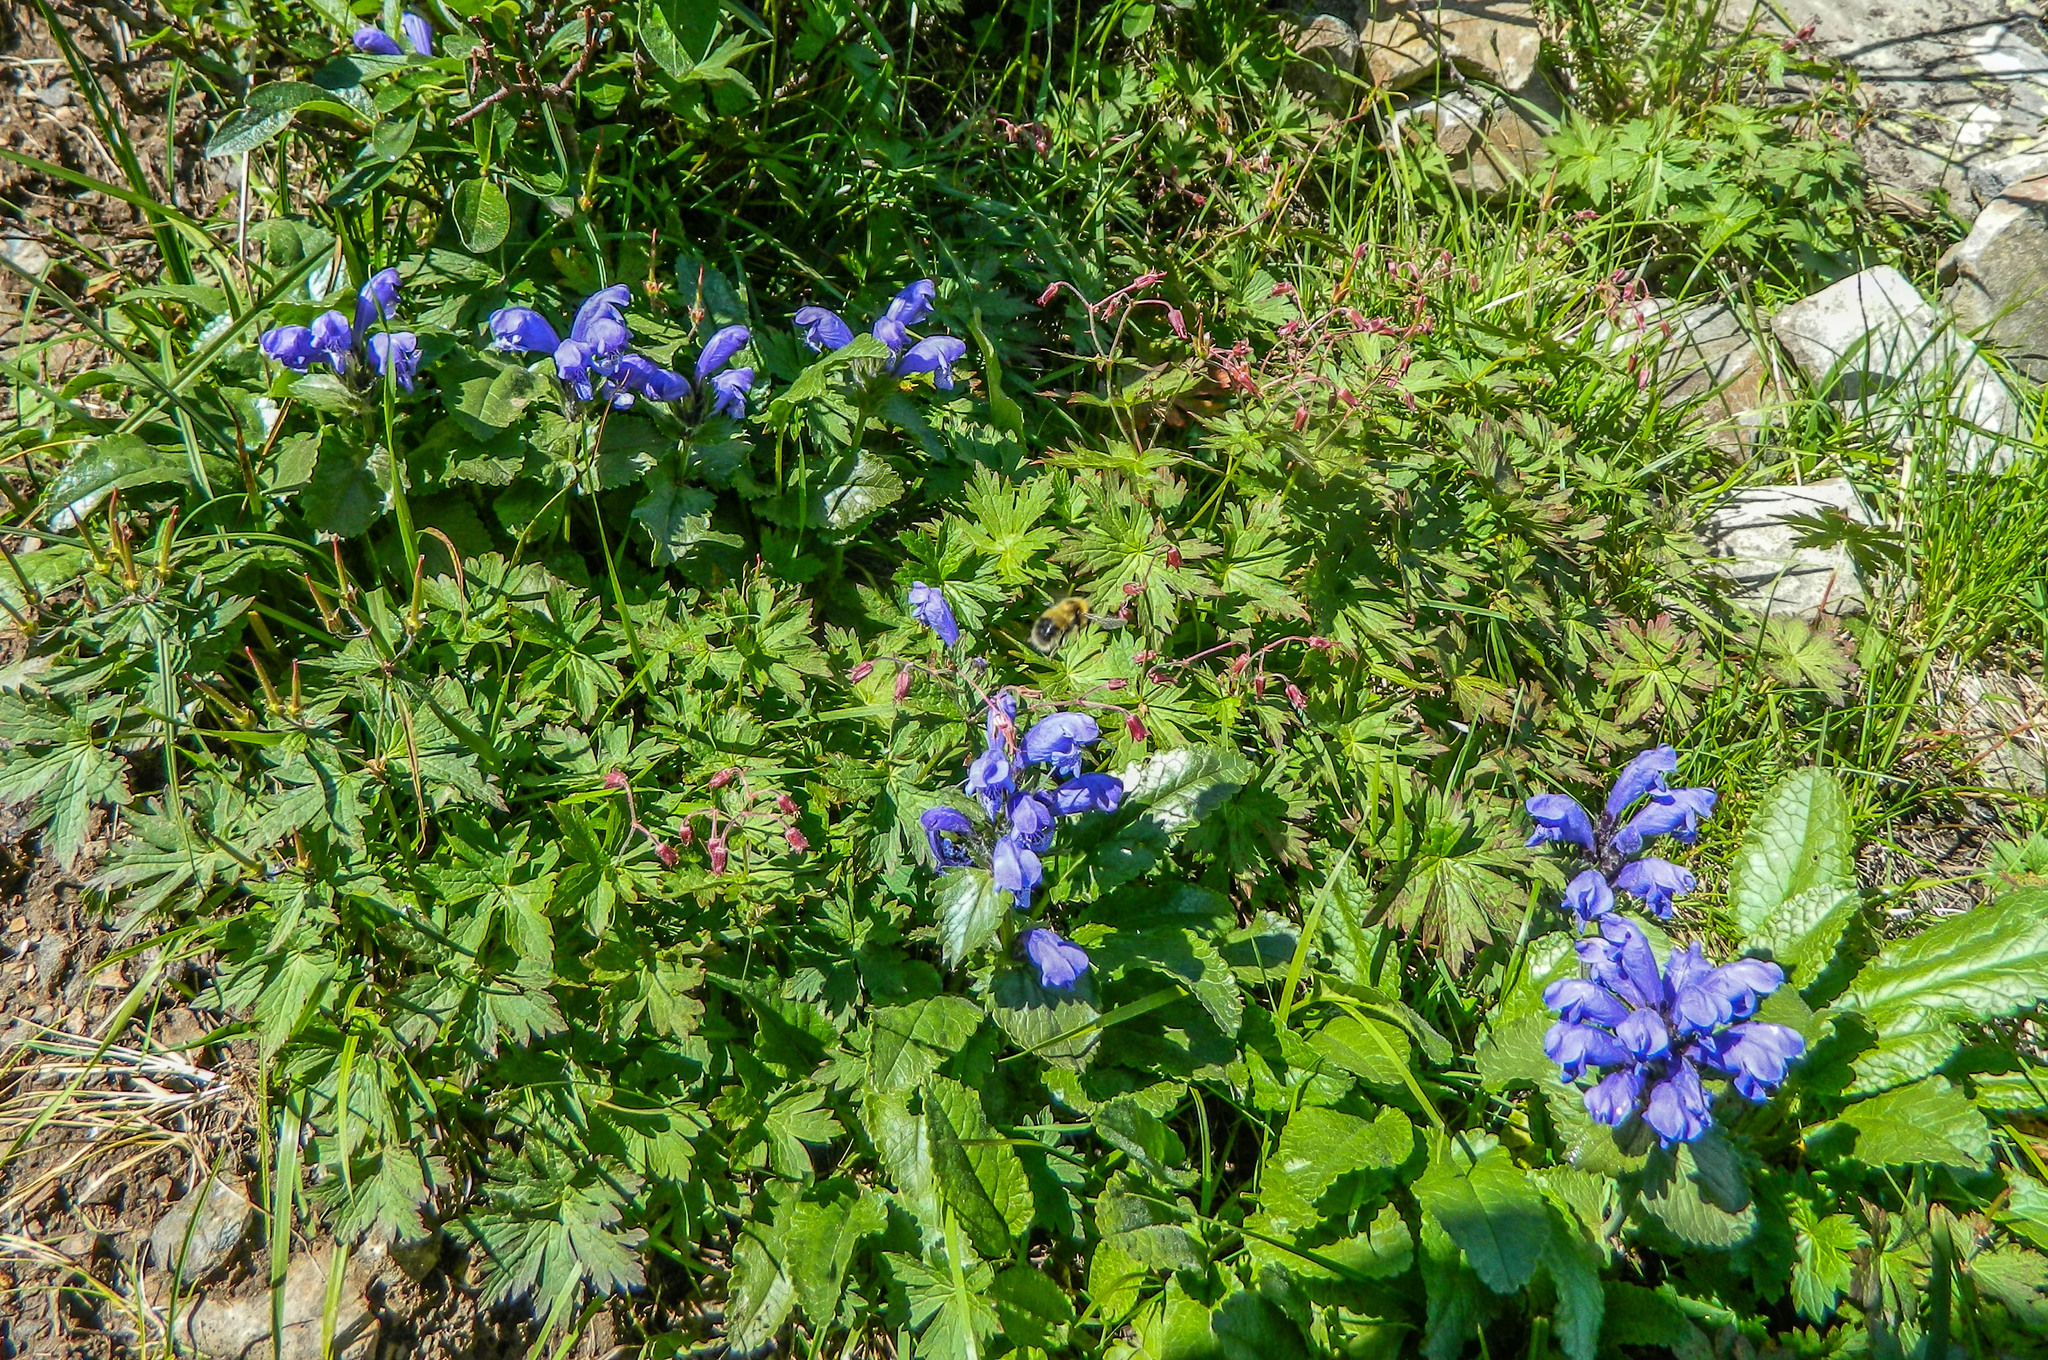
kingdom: Plantae
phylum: Tracheophyta
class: Magnoliopsida
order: Lamiales
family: Lamiaceae
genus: Dracocephalum
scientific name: Dracocephalum grandiflorum
